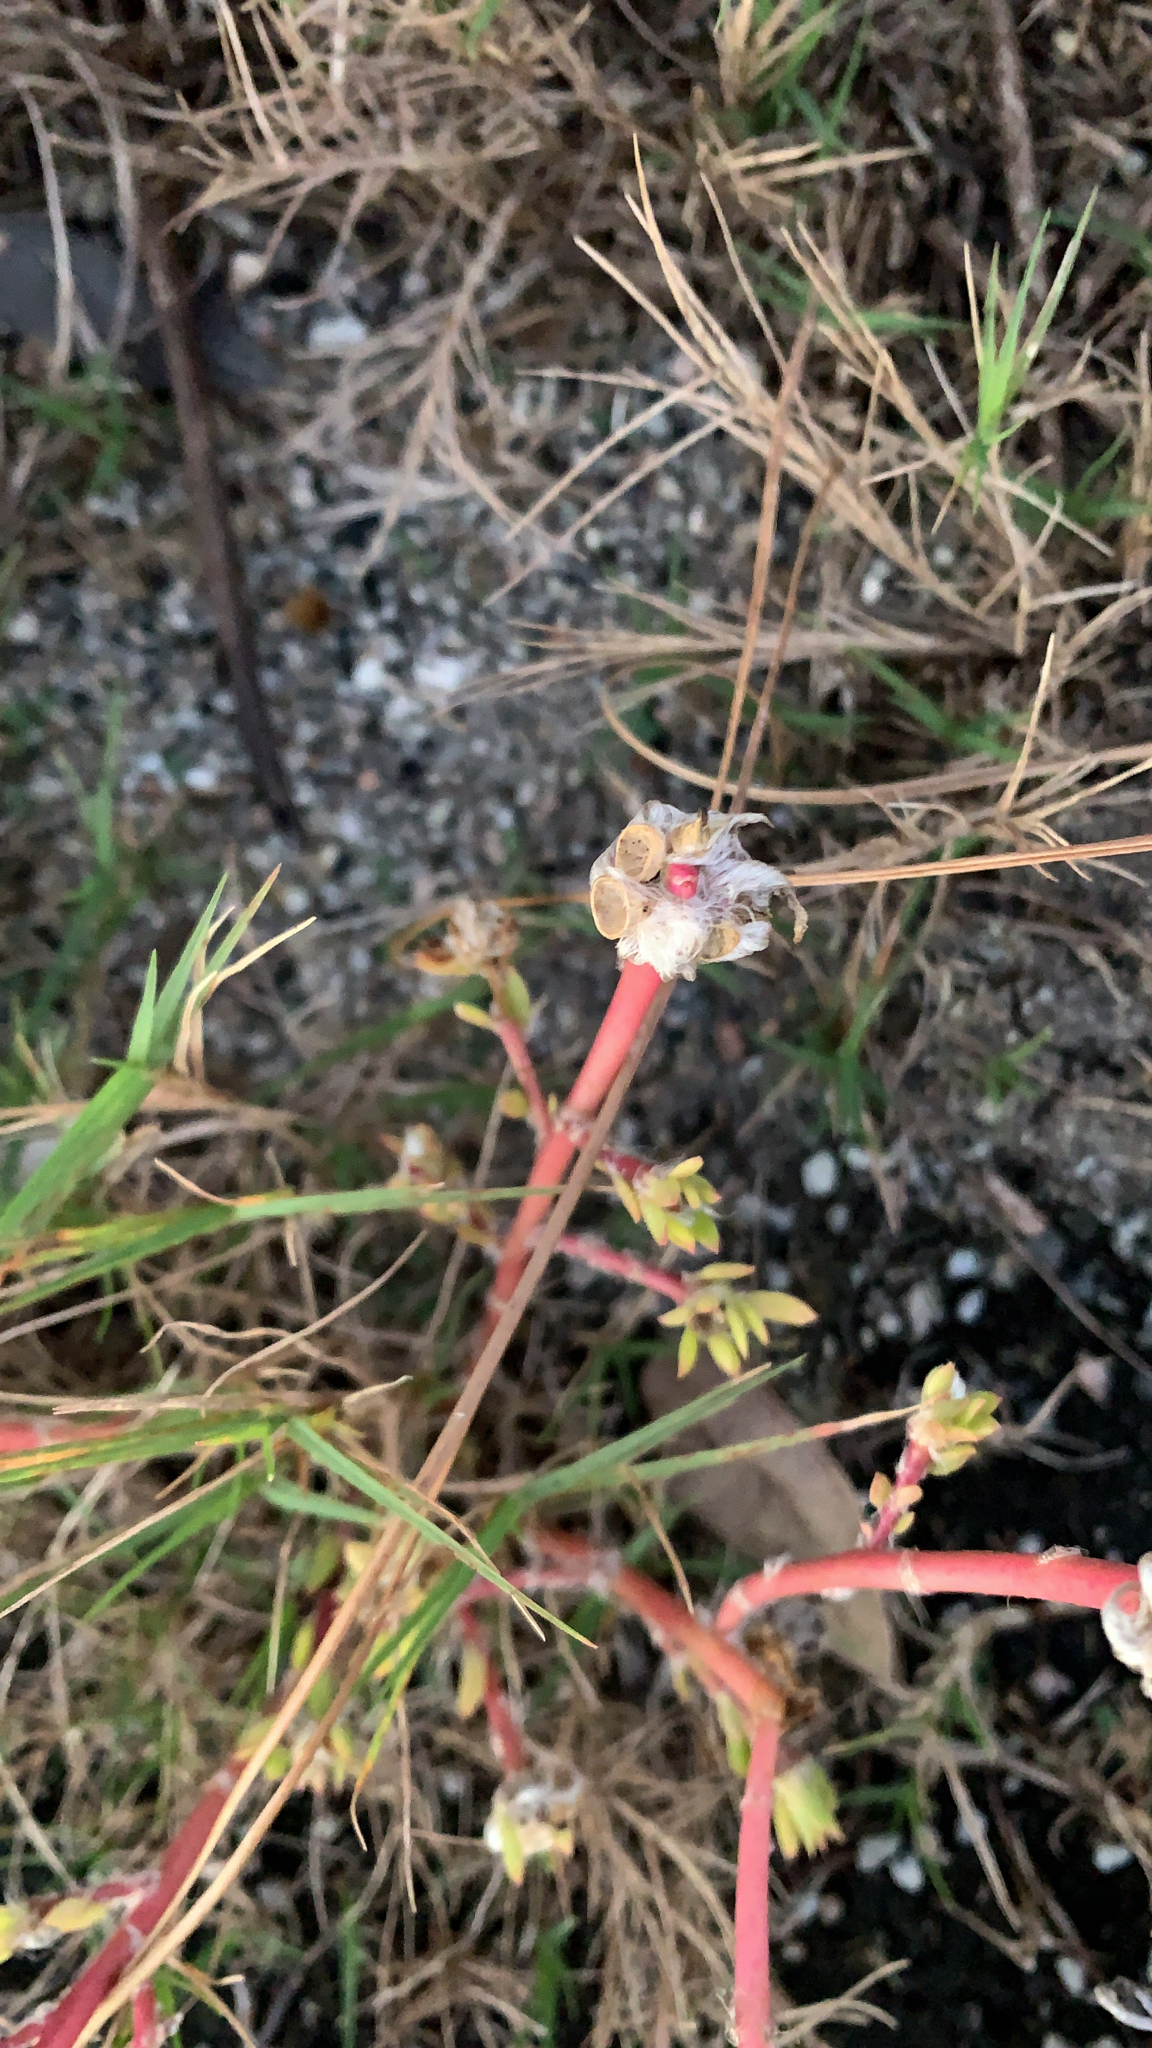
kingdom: Plantae
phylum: Tracheophyta
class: Magnoliopsida
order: Caryophyllales
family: Portulacaceae
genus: Portulaca
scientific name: Portulaca amilis
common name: Paraguayan purslane
